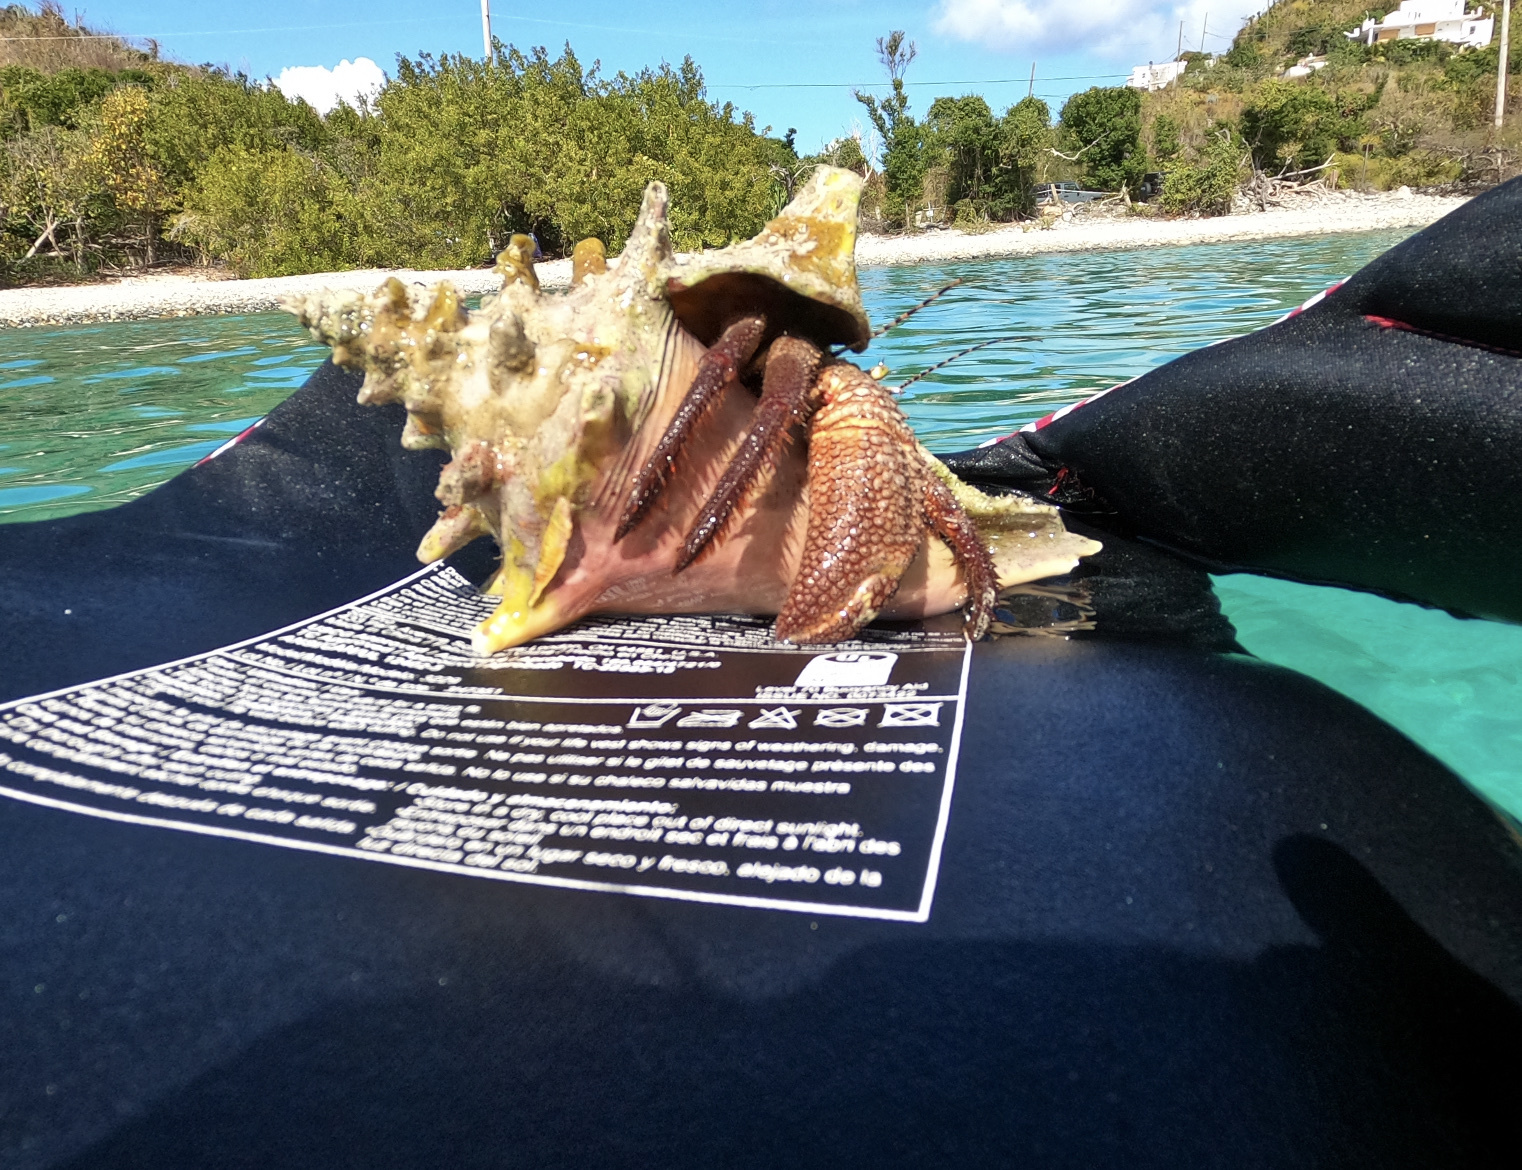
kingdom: Animalia
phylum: Mollusca
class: Gastropoda
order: Littorinimorpha
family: Strombidae
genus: Aliger
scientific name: Aliger gigas
